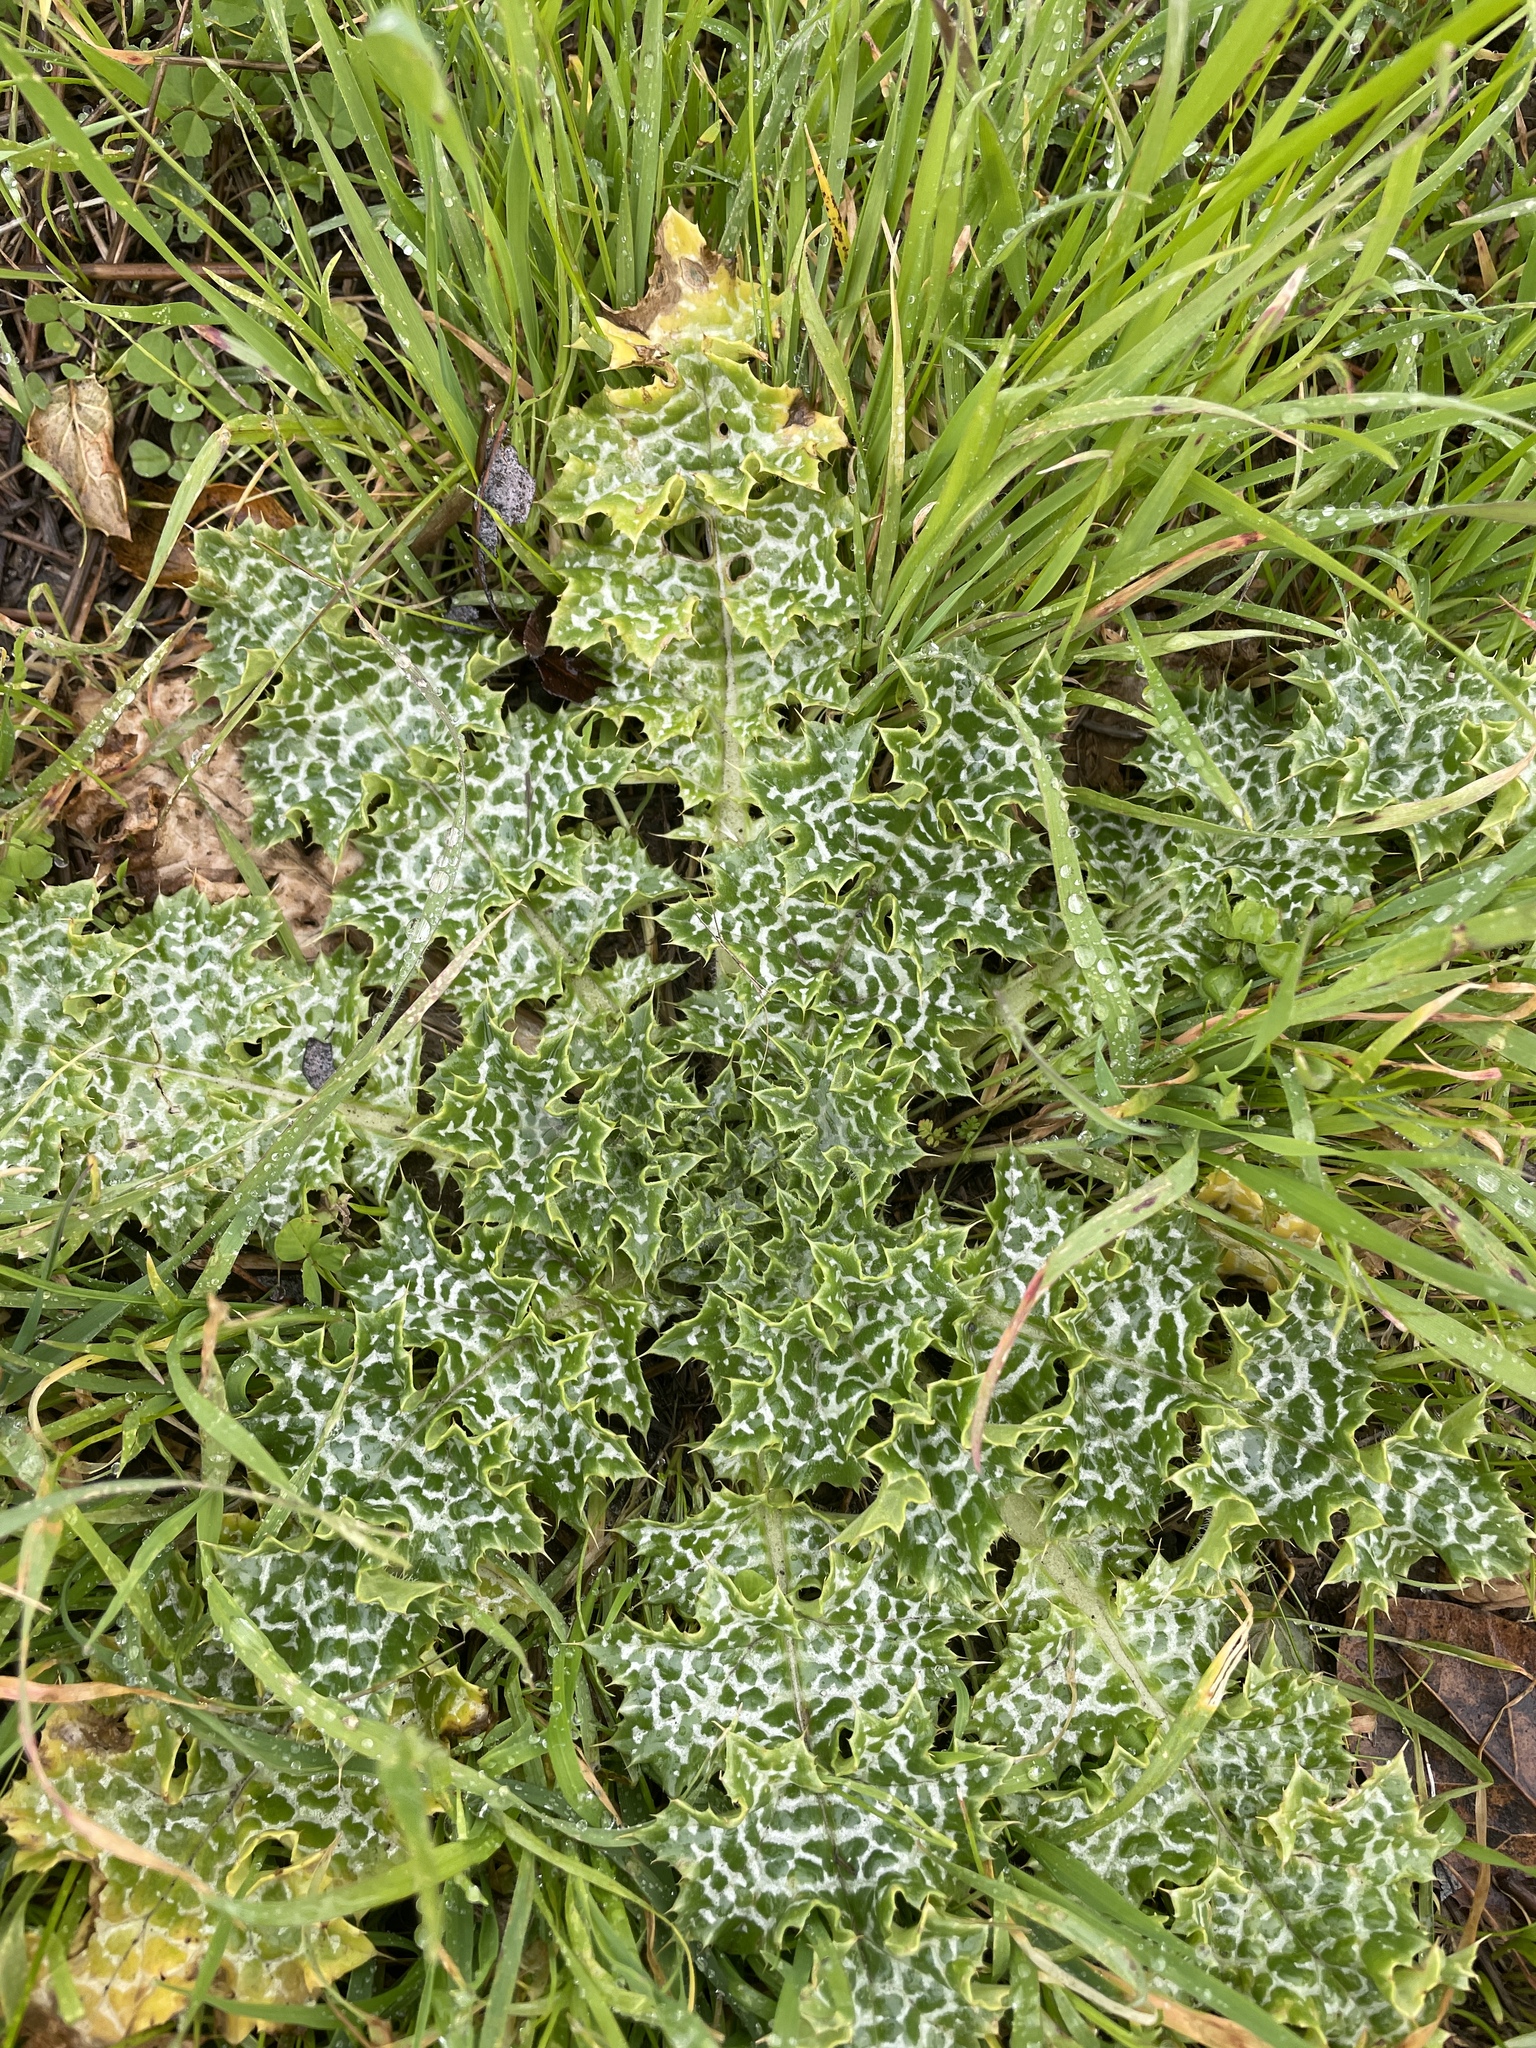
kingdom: Plantae
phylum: Tracheophyta
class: Magnoliopsida
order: Asterales
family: Asteraceae
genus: Silybum
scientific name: Silybum marianum
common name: Milk thistle
